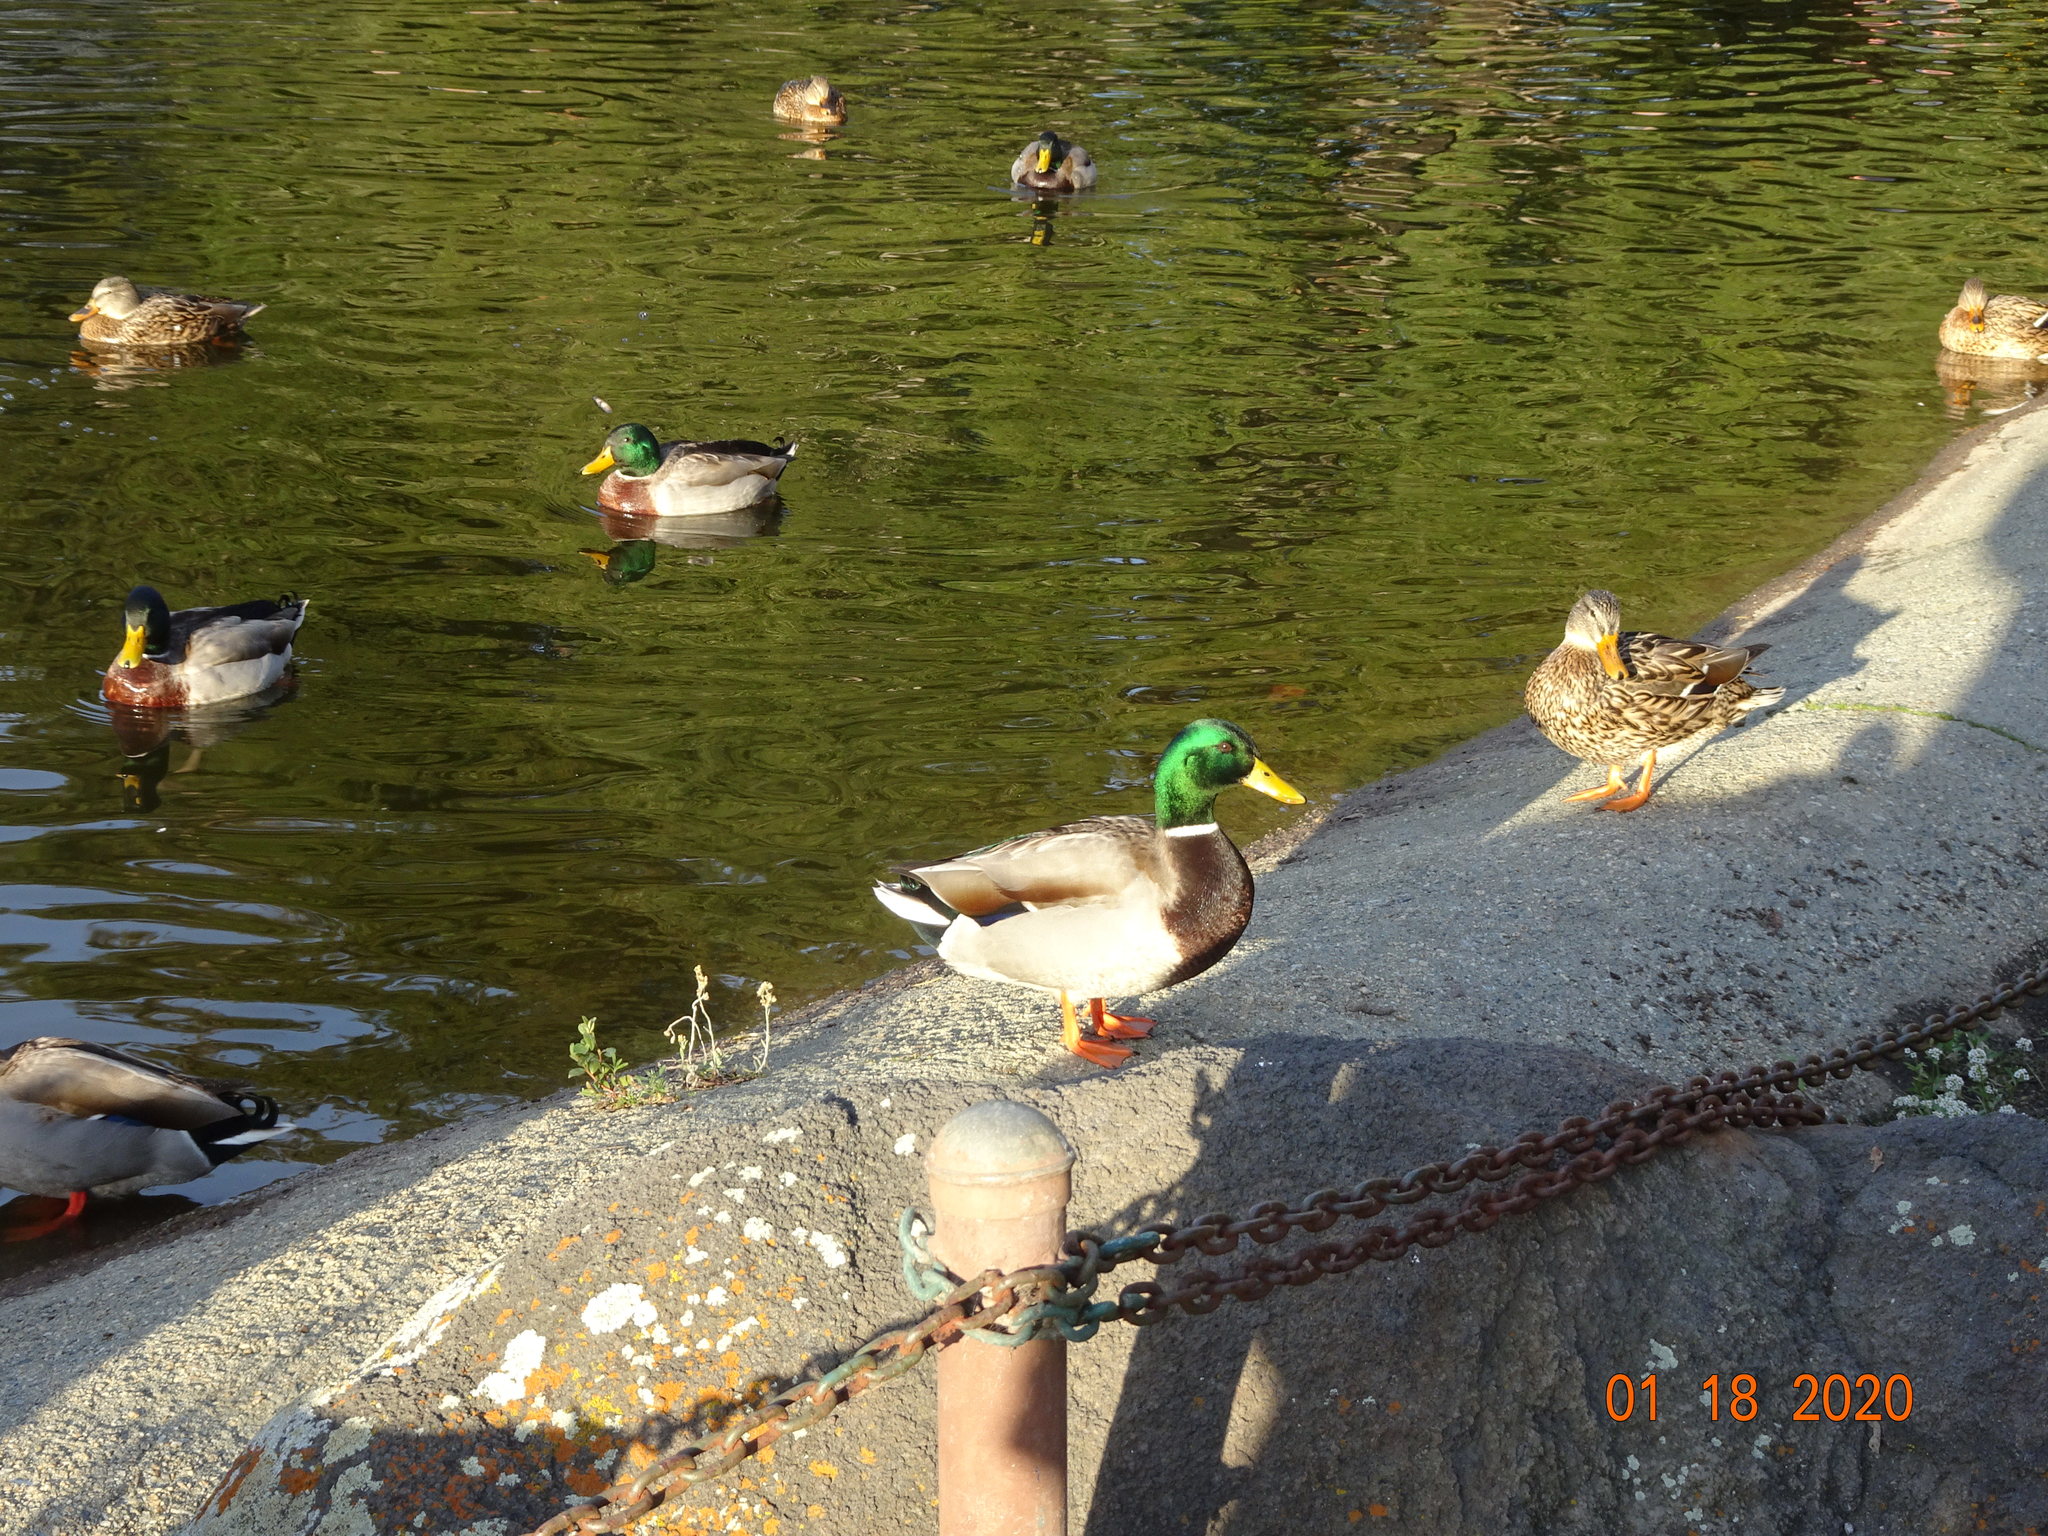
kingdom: Animalia
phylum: Chordata
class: Aves
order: Anseriformes
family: Anatidae
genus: Anas
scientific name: Anas platyrhynchos
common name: Mallard
